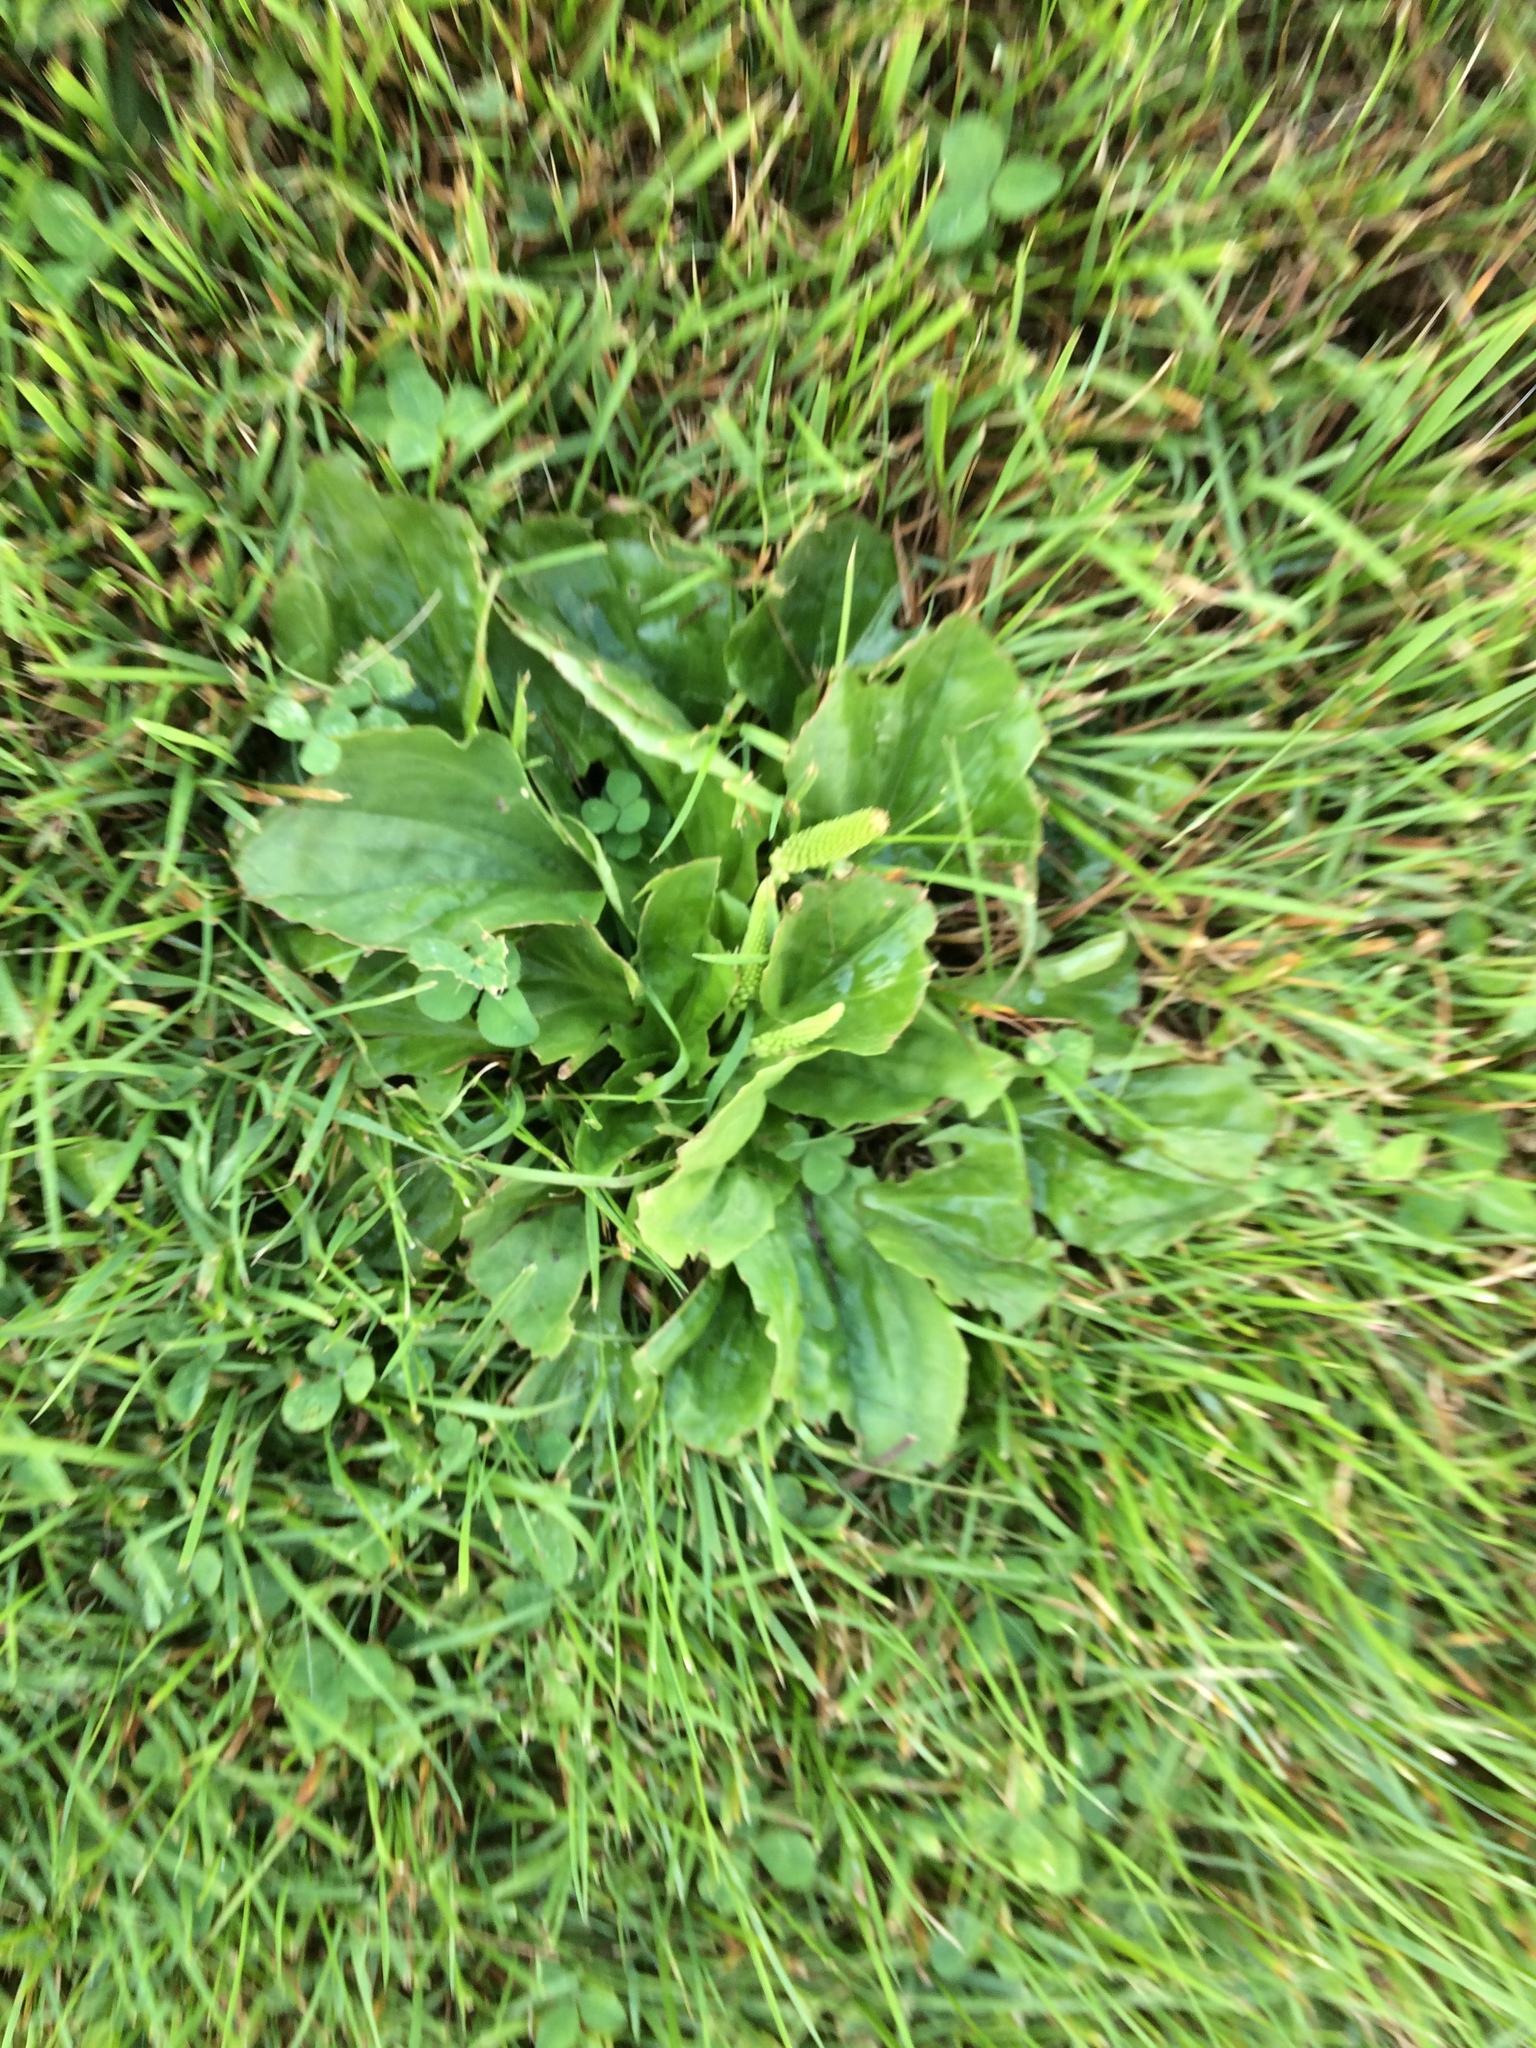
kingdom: Plantae
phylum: Tracheophyta
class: Magnoliopsida
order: Lamiales
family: Plantaginaceae
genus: Plantago
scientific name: Plantago major
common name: Common plantain
